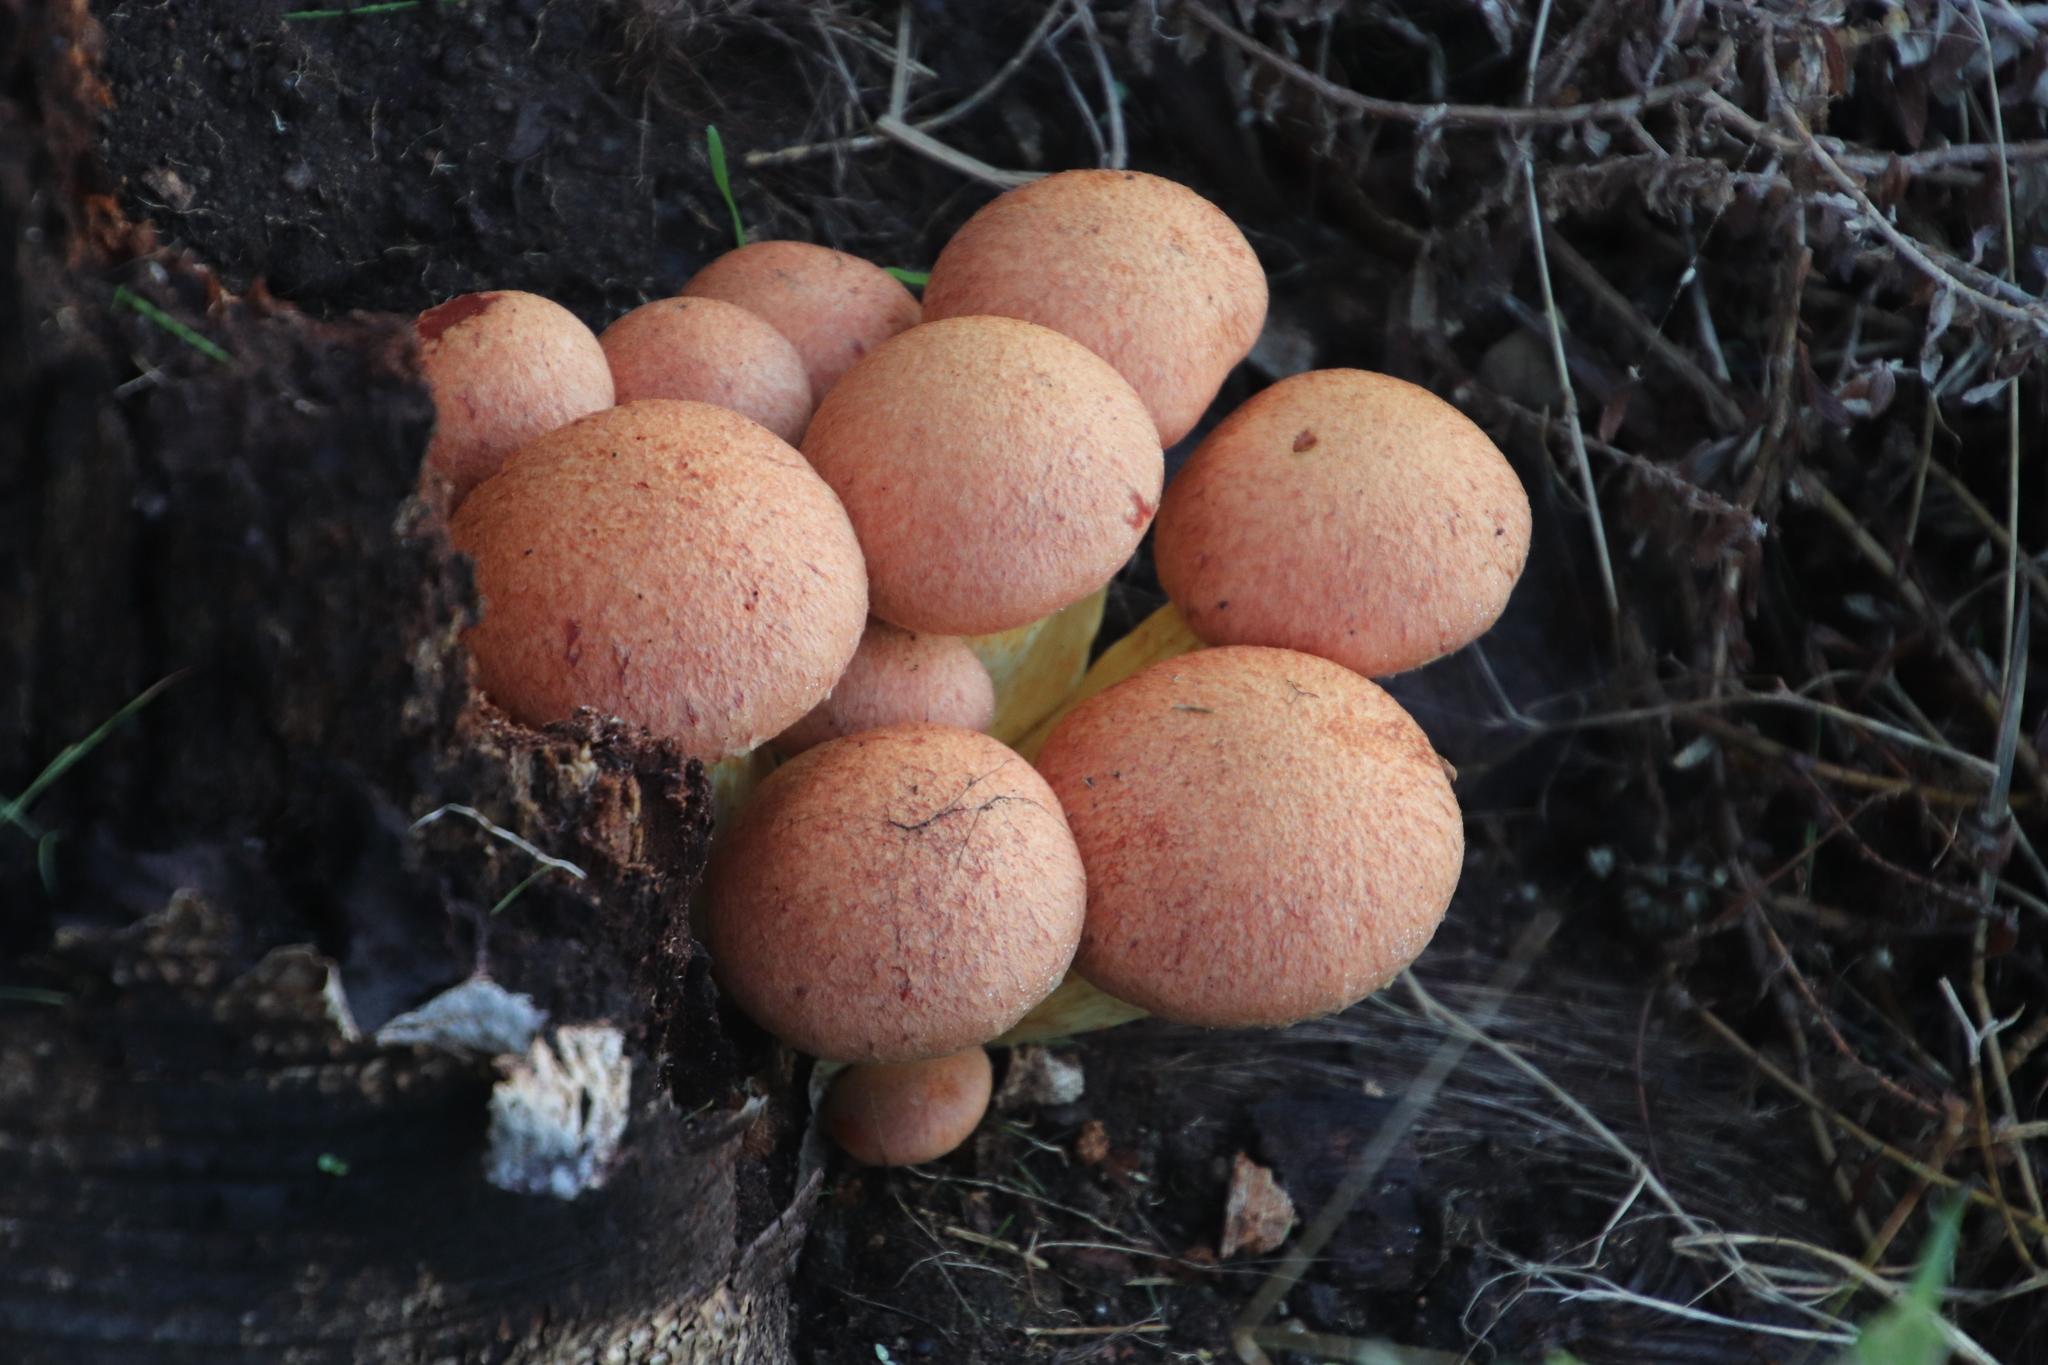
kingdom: Fungi
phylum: Basidiomycota
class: Agaricomycetes
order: Agaricales
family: Hymenogastraceae
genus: Gymnopilus
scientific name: Gymnopilus junonius
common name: Spectacular rustgill
